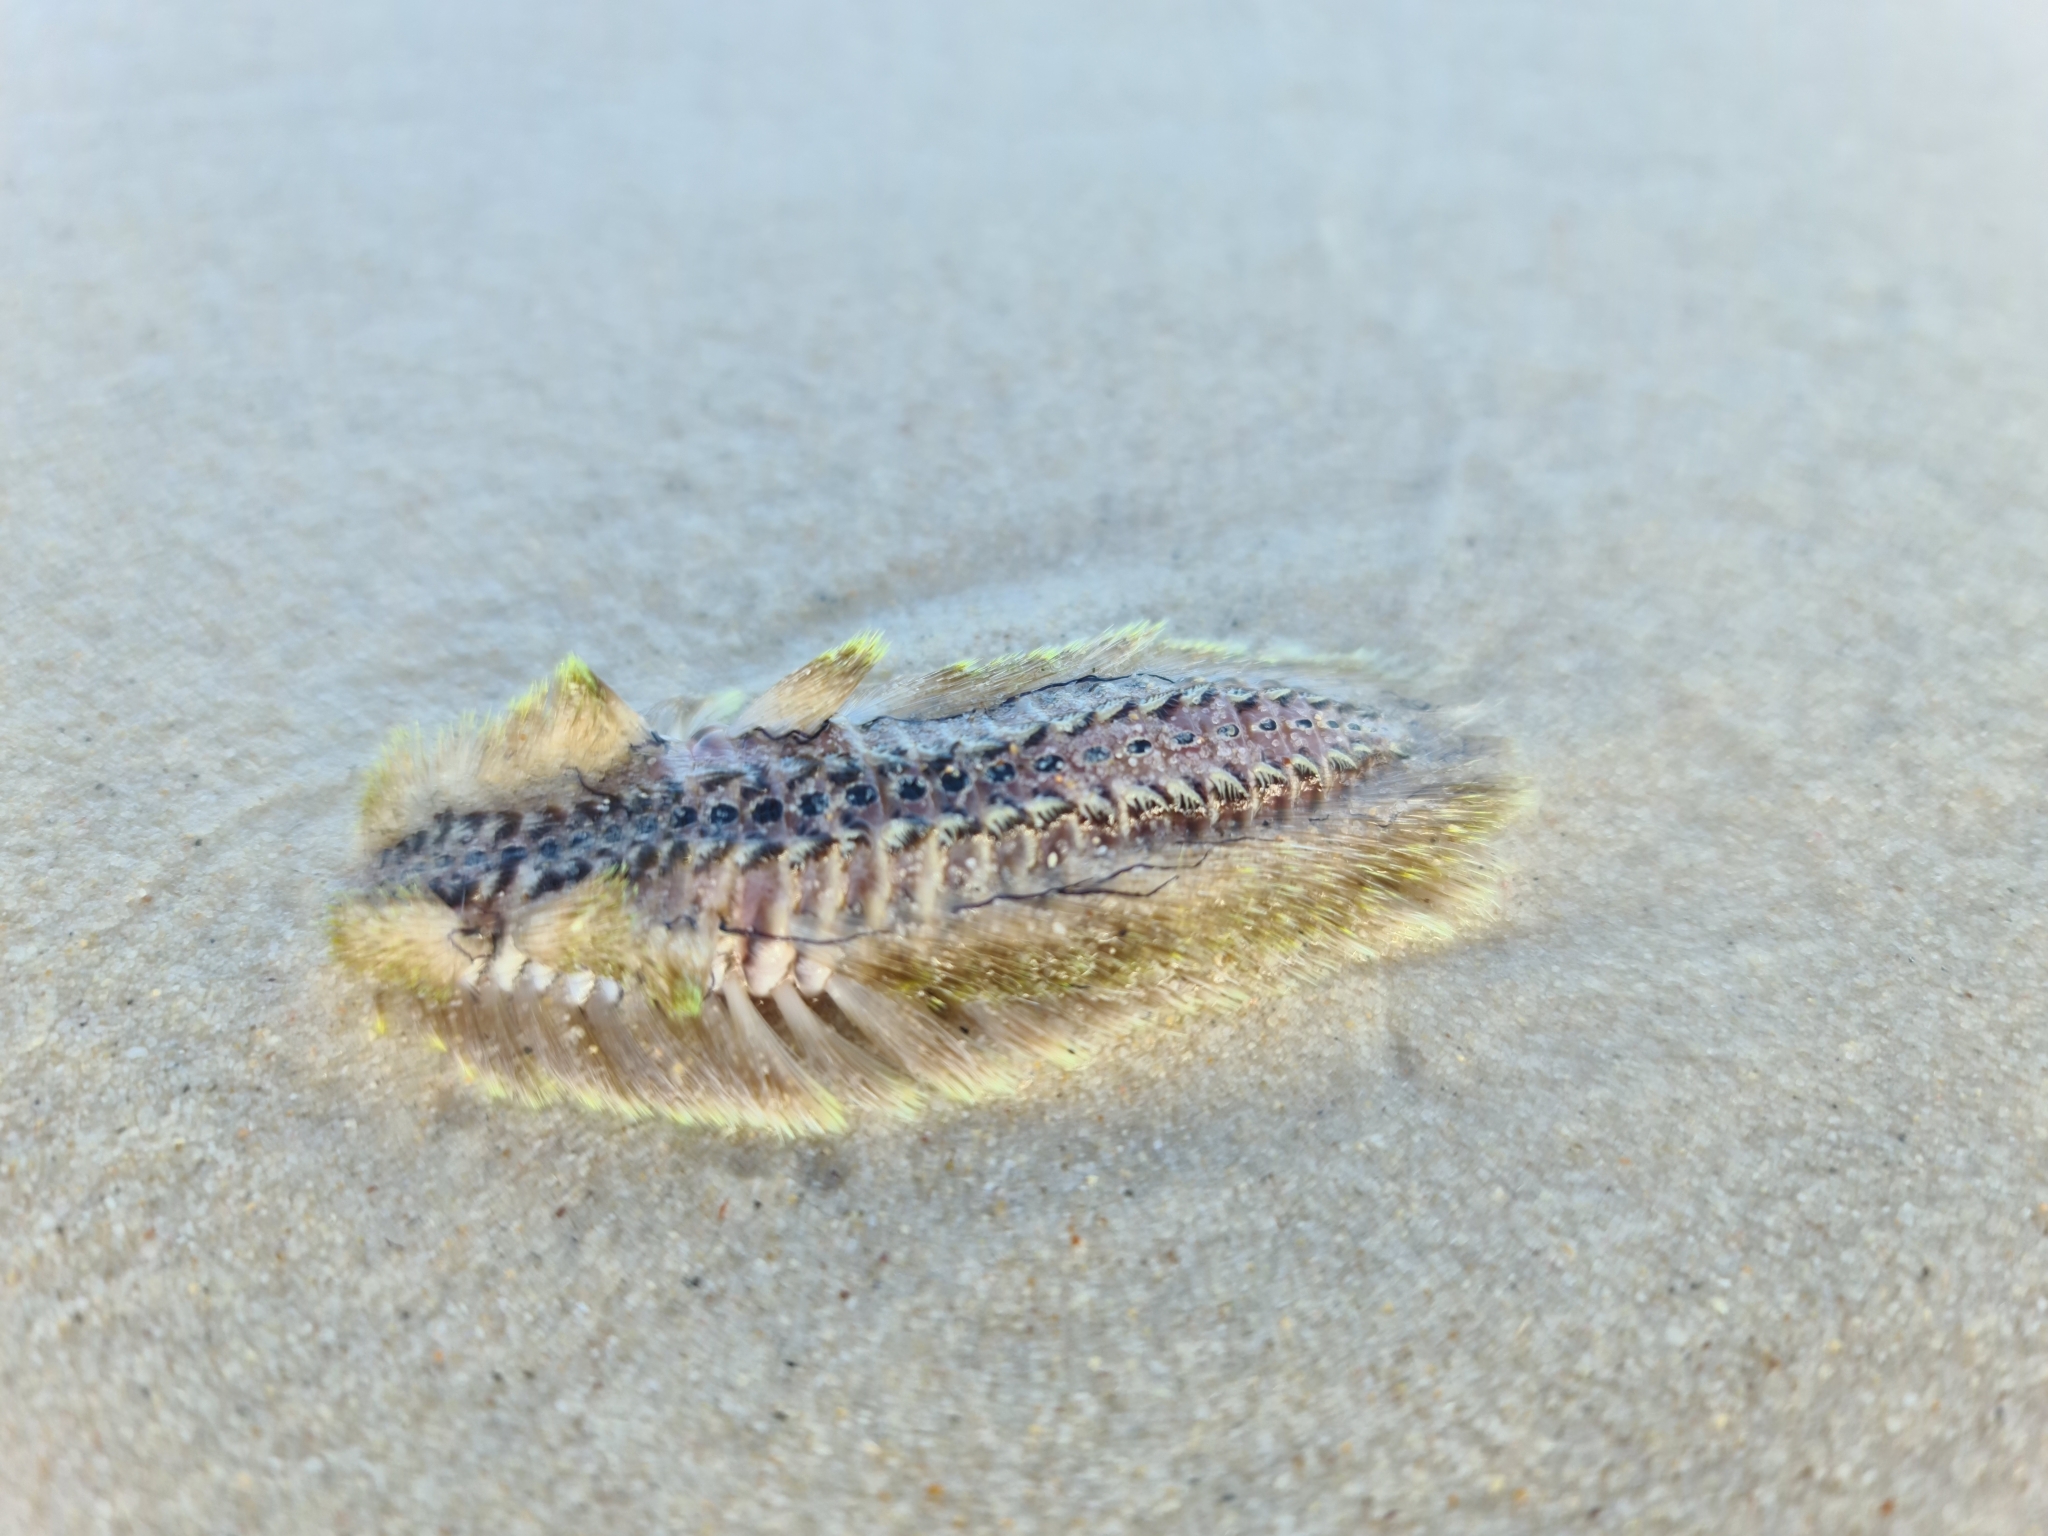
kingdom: Animalia
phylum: Annelida
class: Polychaeta
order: Amphinomida
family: Amphinomidae
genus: Chloeia
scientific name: Chloeia flava
